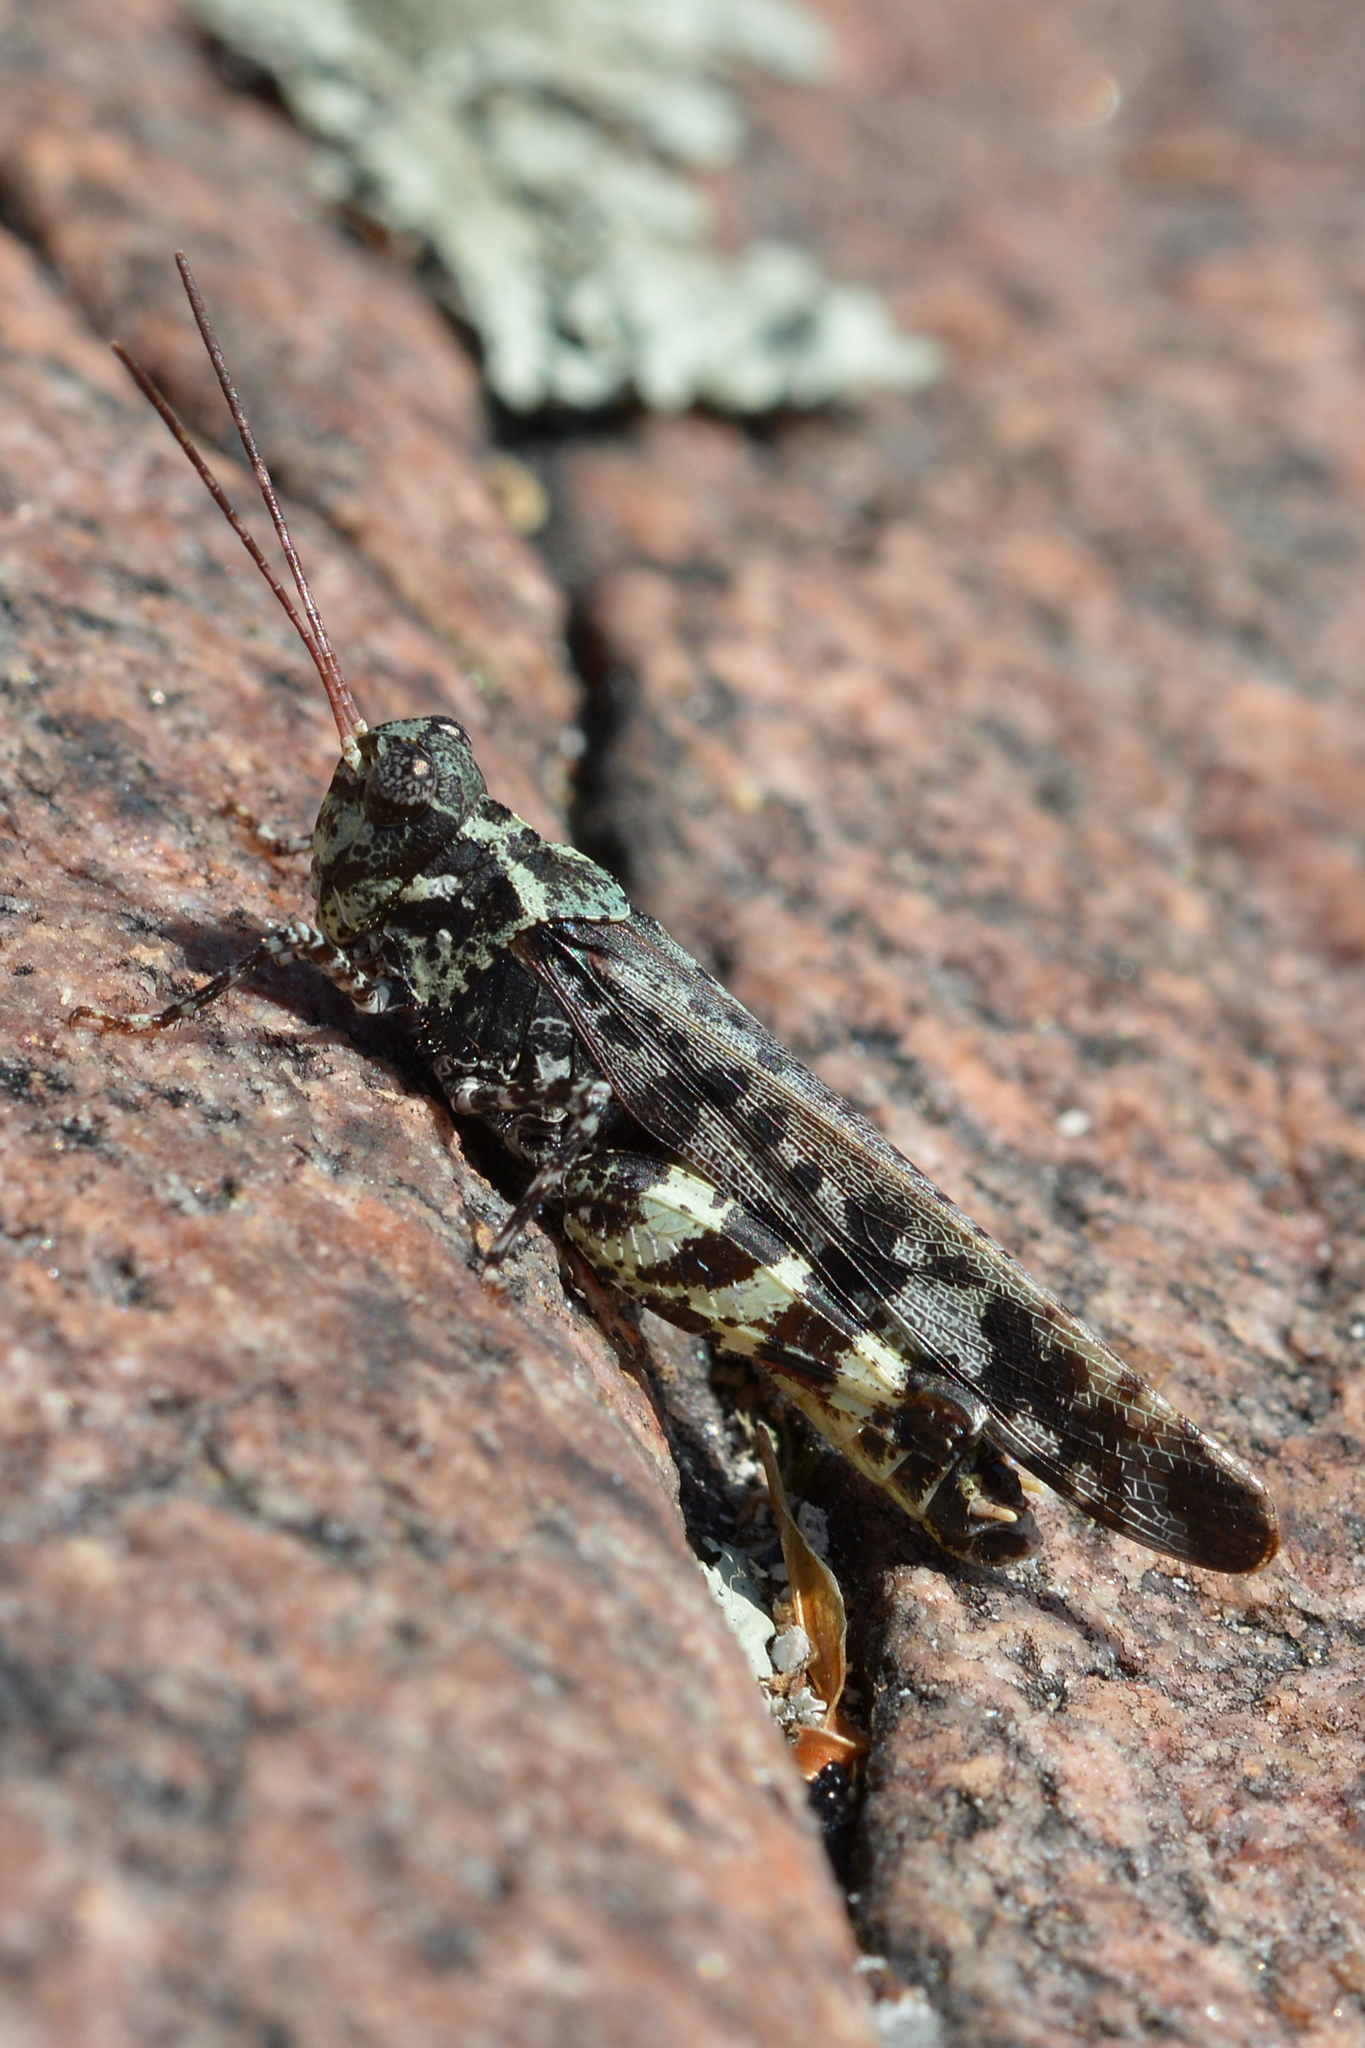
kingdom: Animalia
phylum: Arthropoda
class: Insecta
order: Orthoptera
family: Acrididae
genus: Spharagemon
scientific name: Spharagemon marmoratum
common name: Marbled grasshopper
